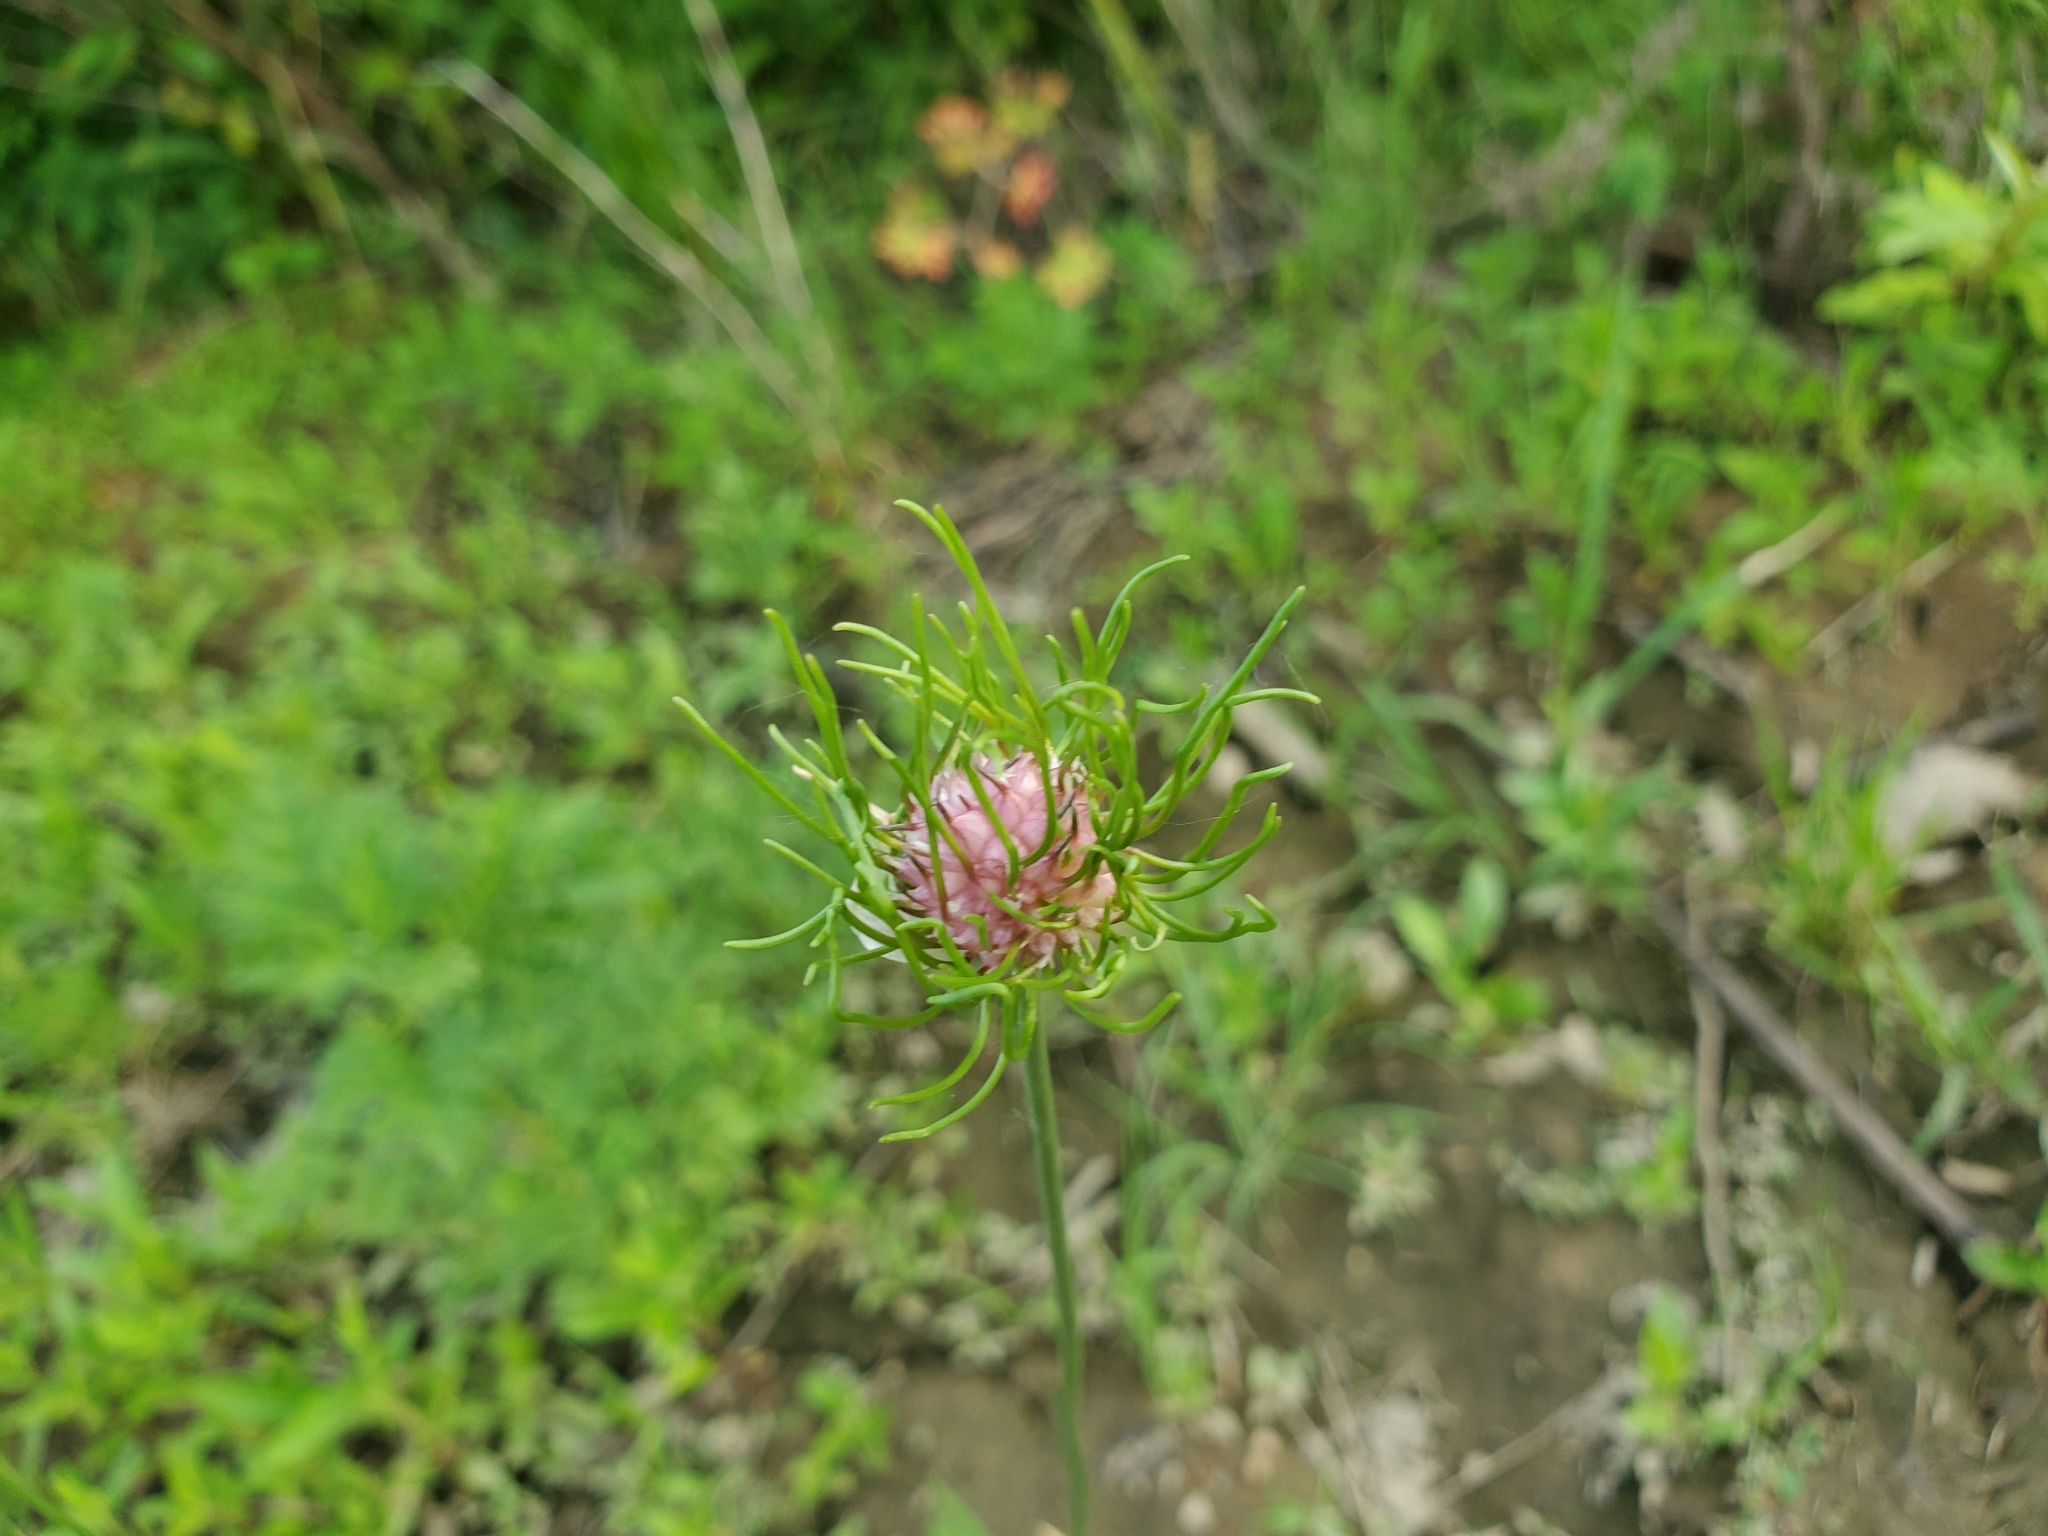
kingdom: Plantae
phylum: Tracheophyta
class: Liliopsida
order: Asparagales
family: Amaryllidaceae
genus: Allium
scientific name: Allium vineale
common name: Crow garlic
